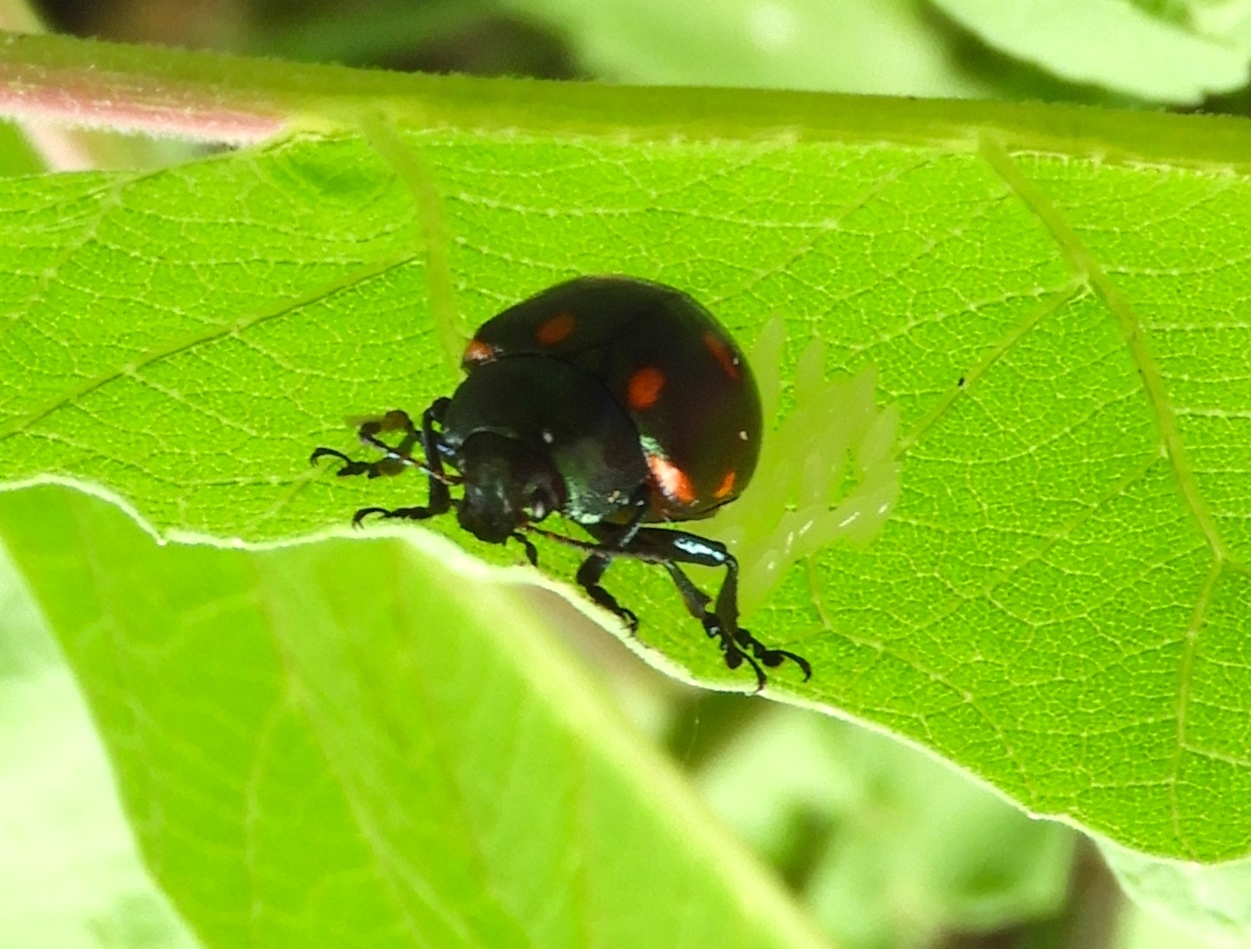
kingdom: Animalia
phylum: Arthropoda
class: Insecta
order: Coleoptera
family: Chrysomelidae
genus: Leptinotarsa
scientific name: Leptinotarsa behrensi
